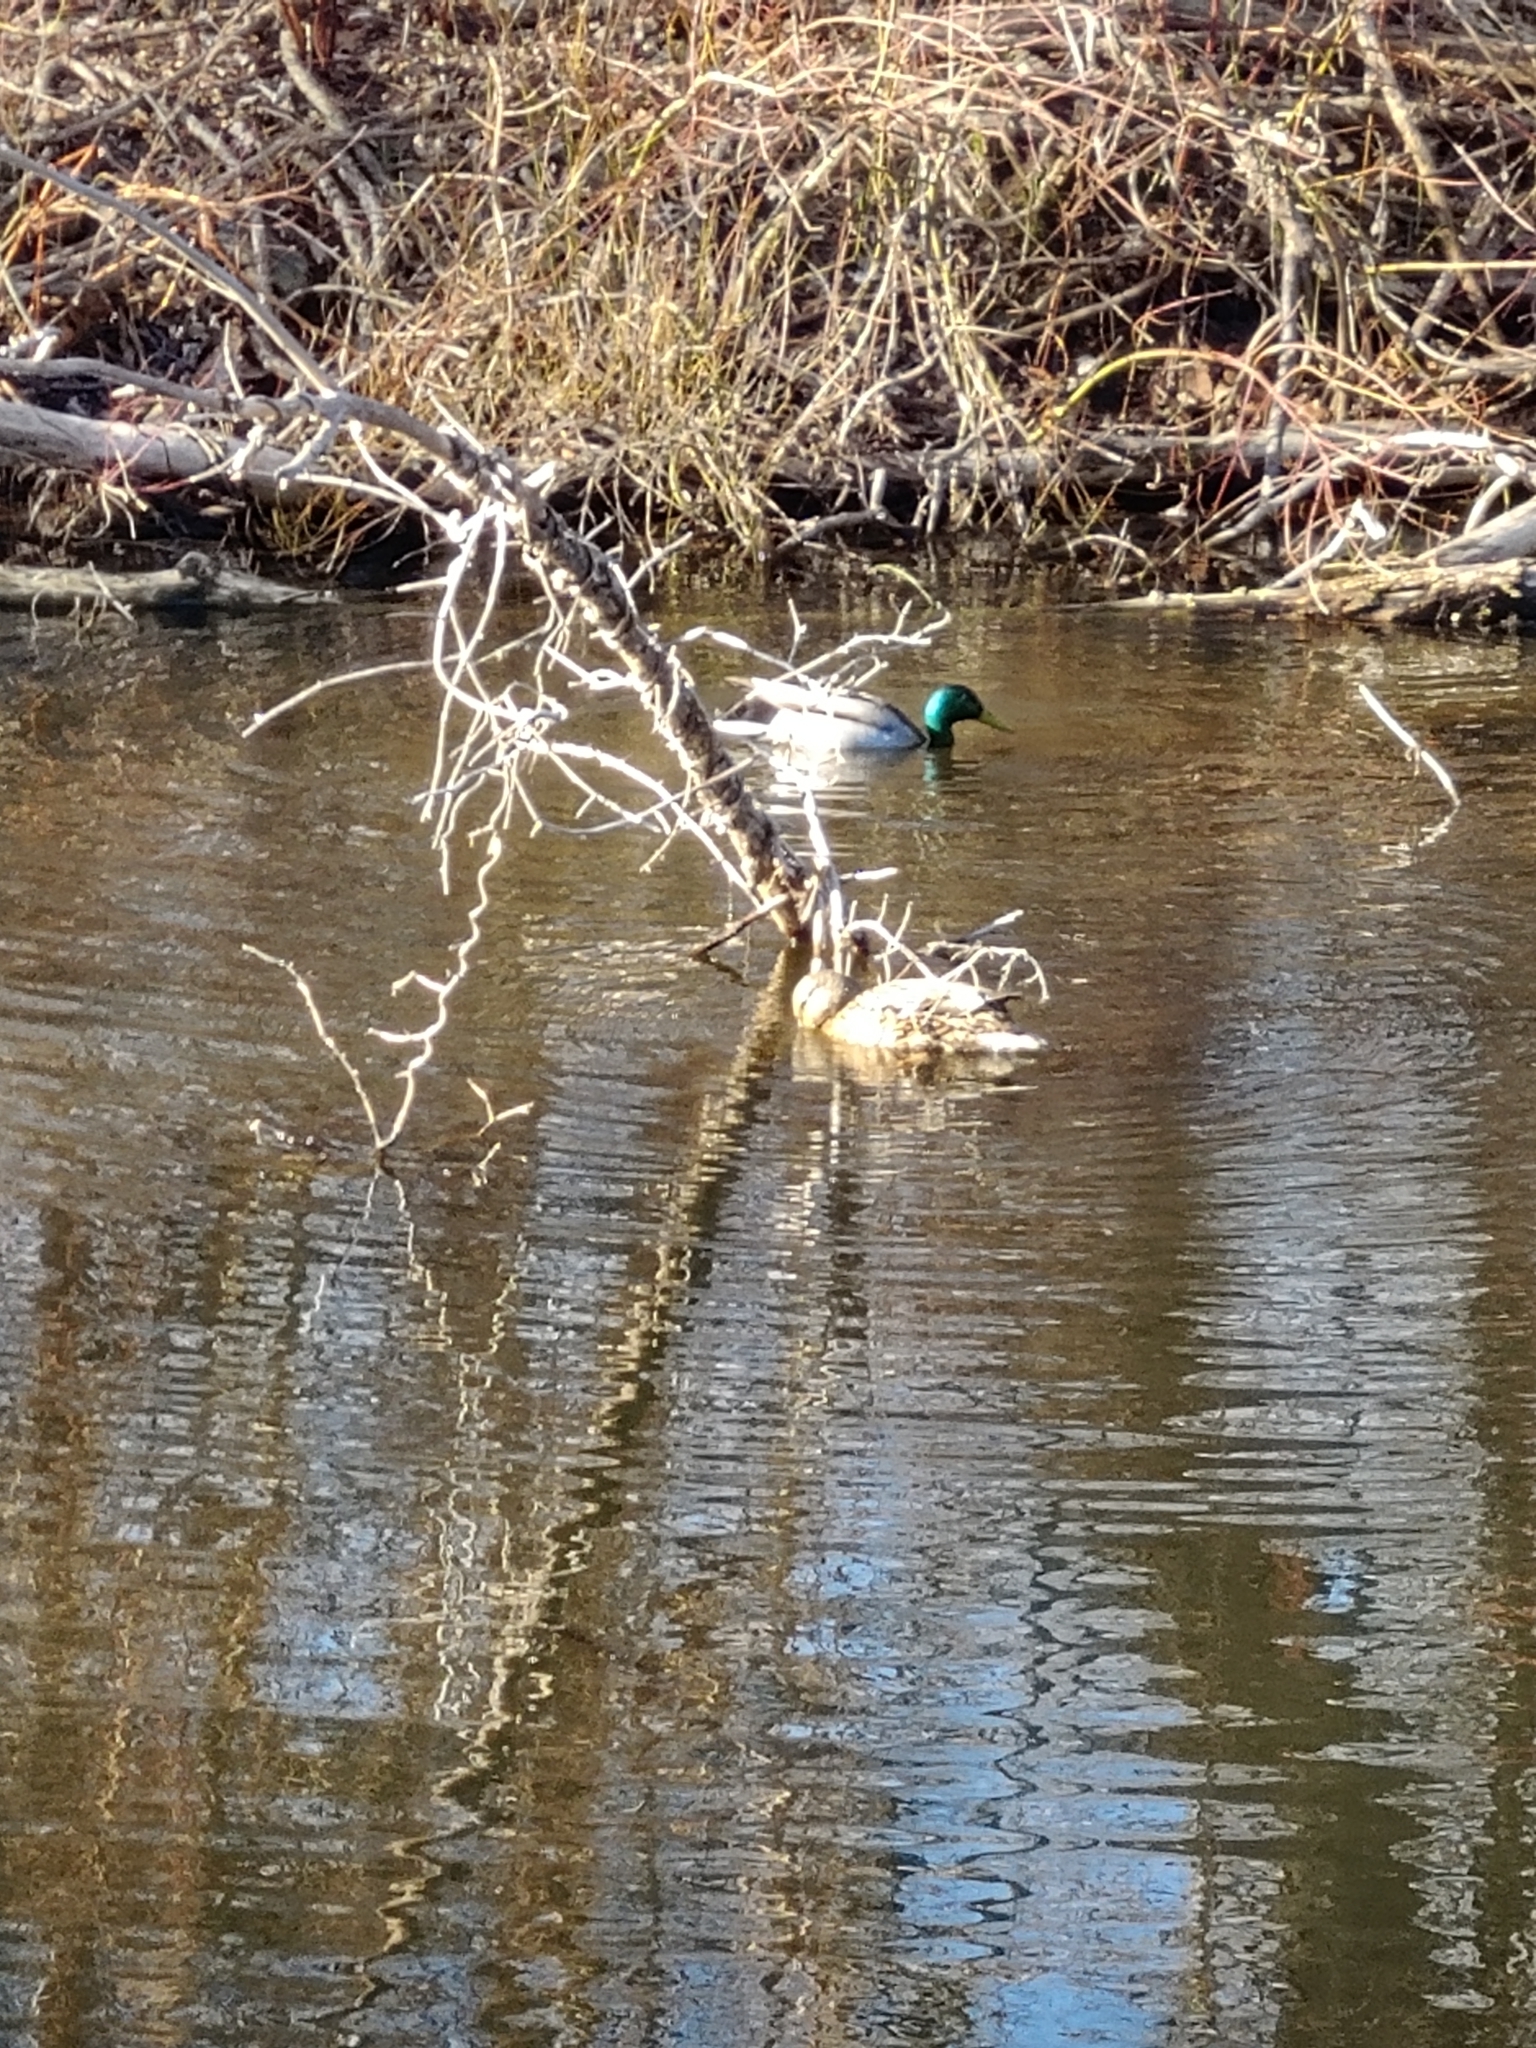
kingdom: Animalia
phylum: Chordata
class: Aves
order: Anseriformes
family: Anatidae
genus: Anas
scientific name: Anas platyrhynchos
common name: Mallard
